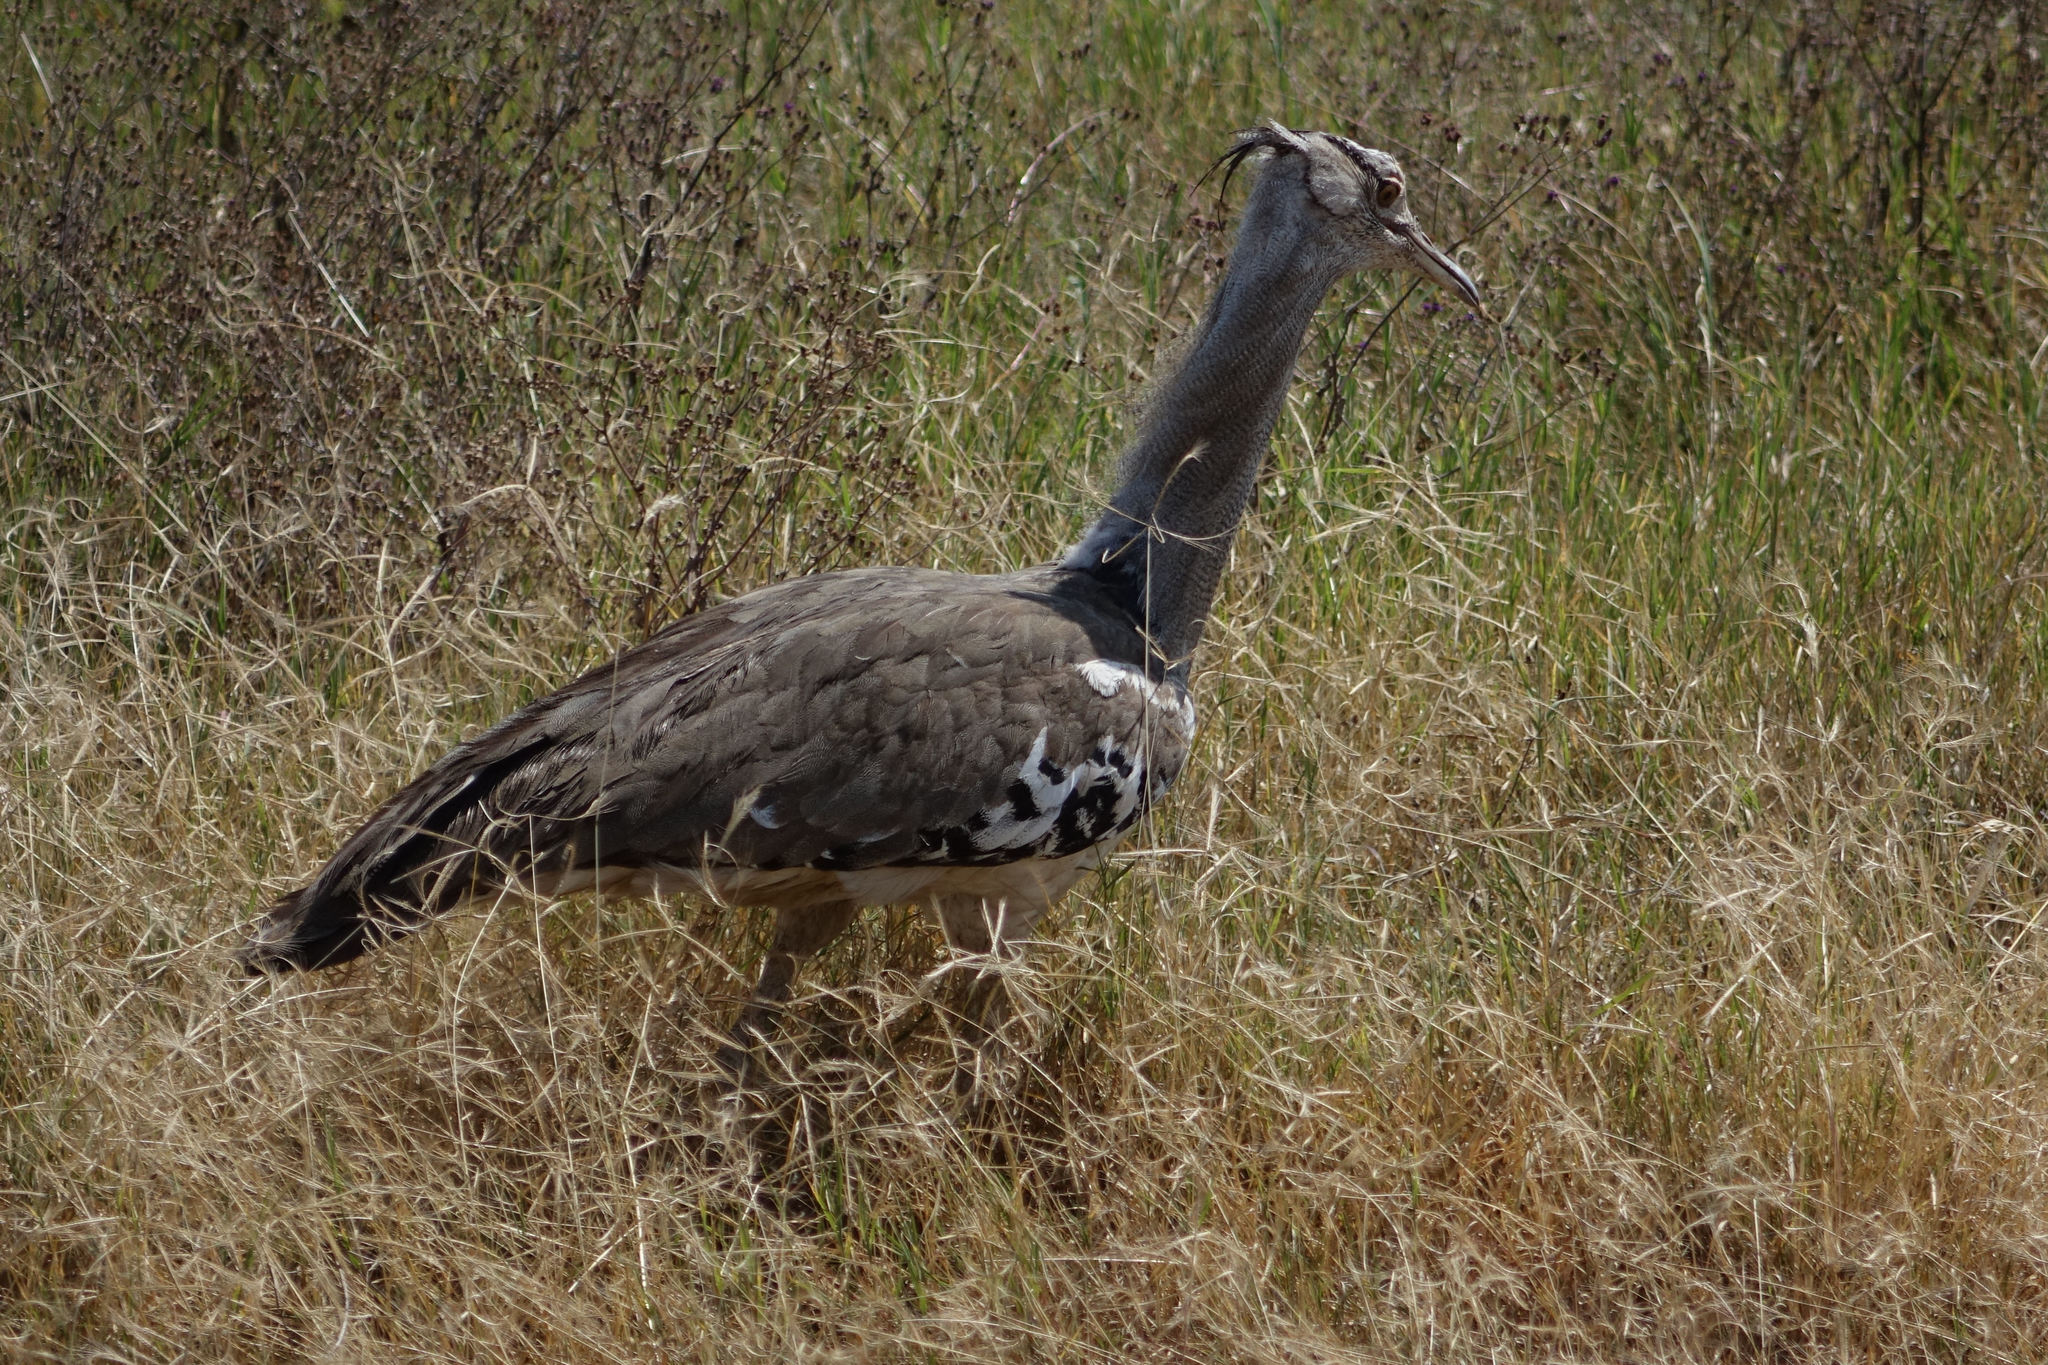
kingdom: Animalia
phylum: Chordata
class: Aves
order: Otidiformes
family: Otididae
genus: Ardeotis
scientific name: Ardeotis kori
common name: Kori bustard
